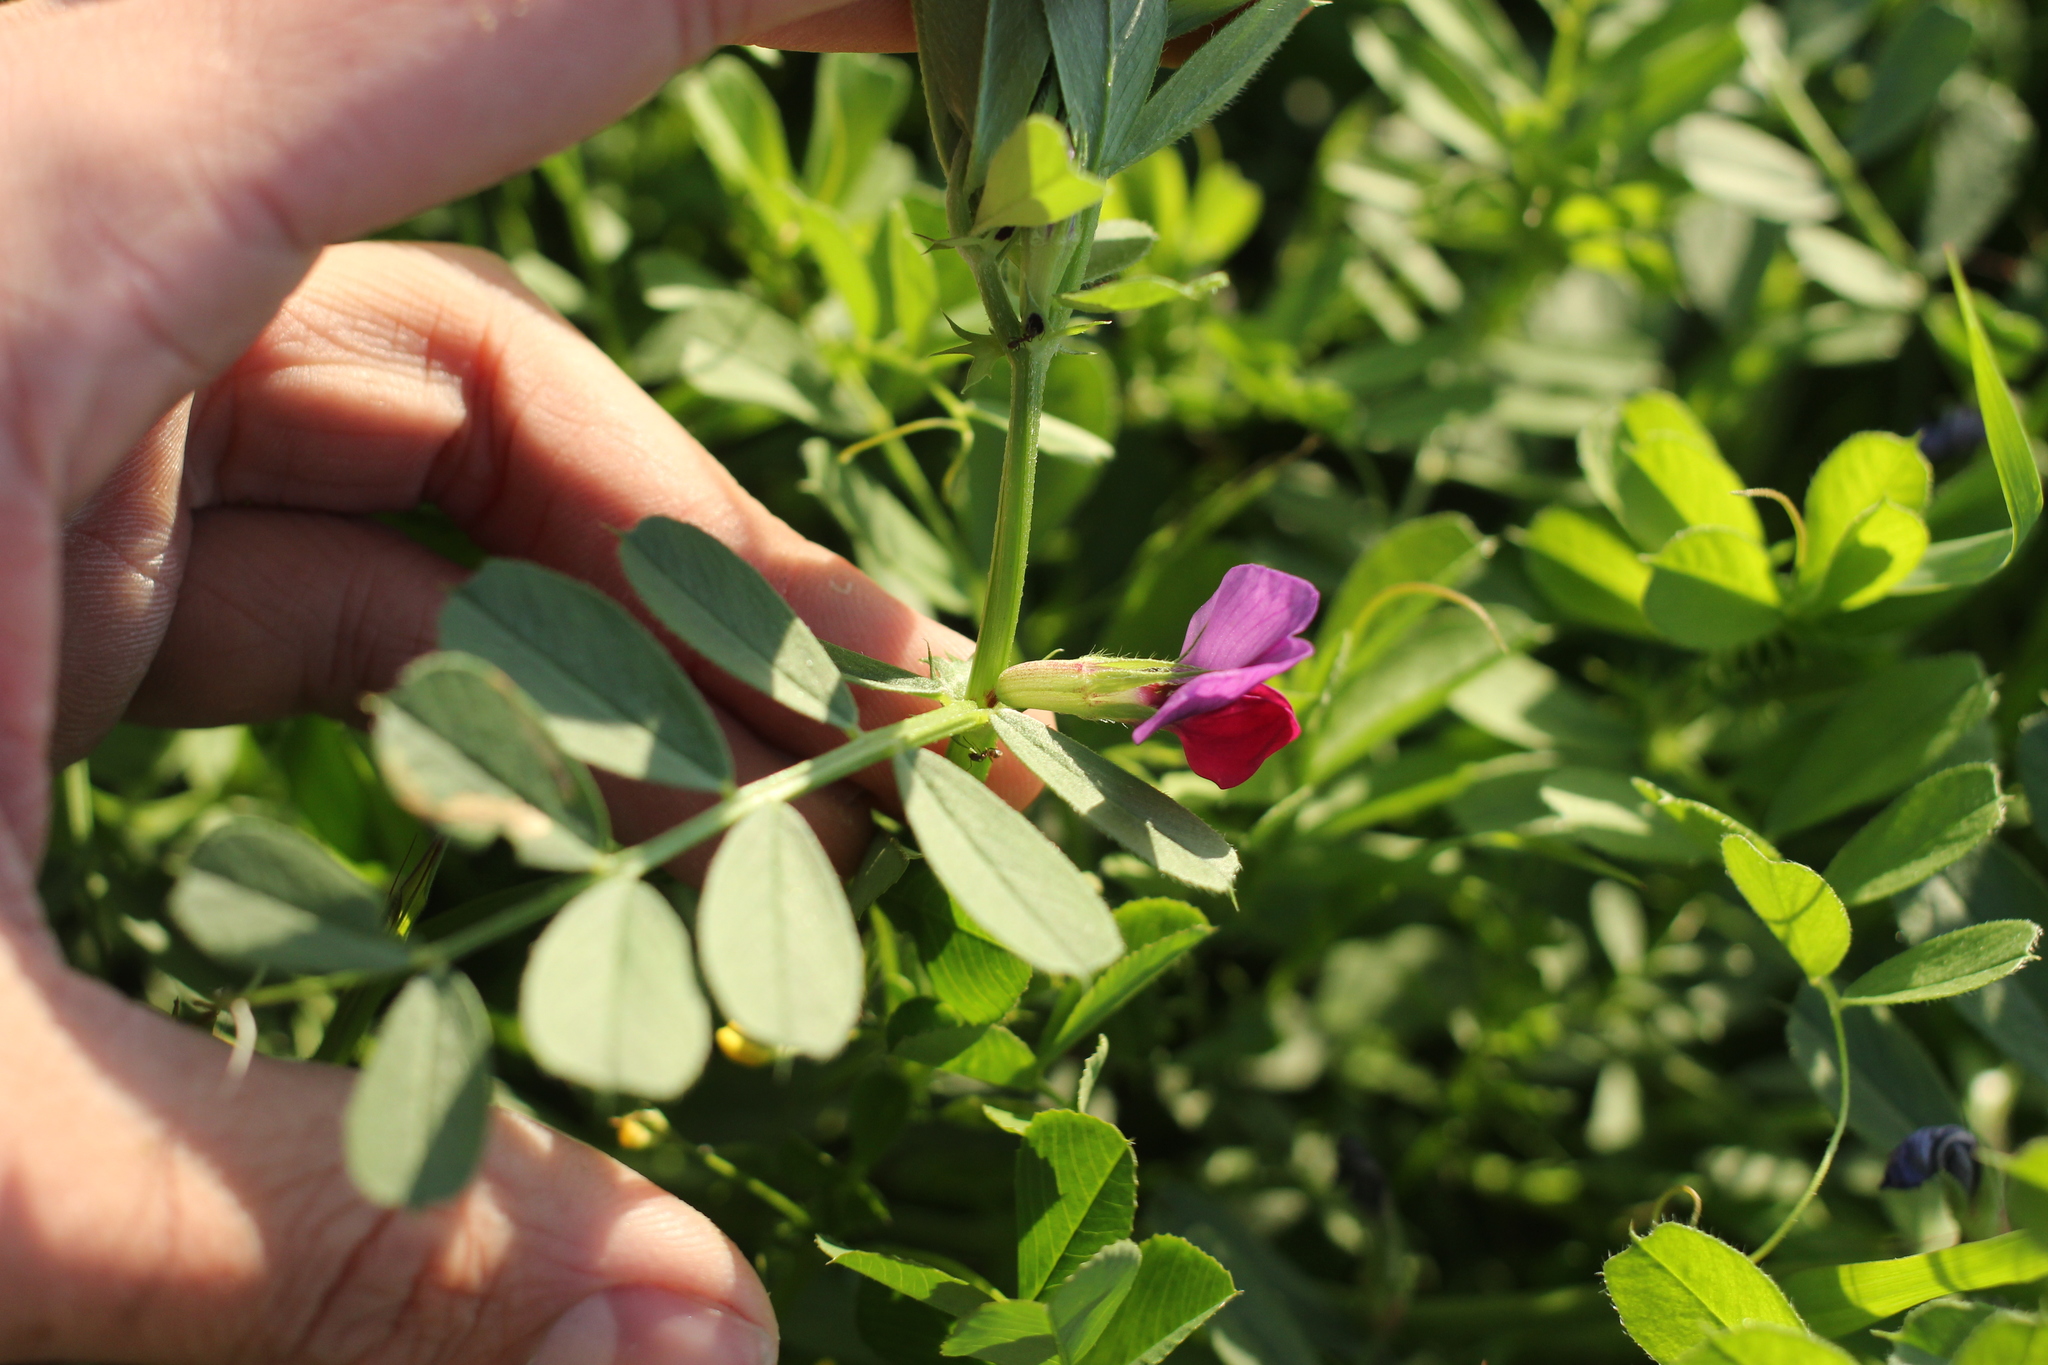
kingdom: Plantae
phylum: Tracheophyta
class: Magnoliopsida
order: Fabales
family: Fabaceae
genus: Vicia
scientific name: Vicia sativa
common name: Garden vetch
